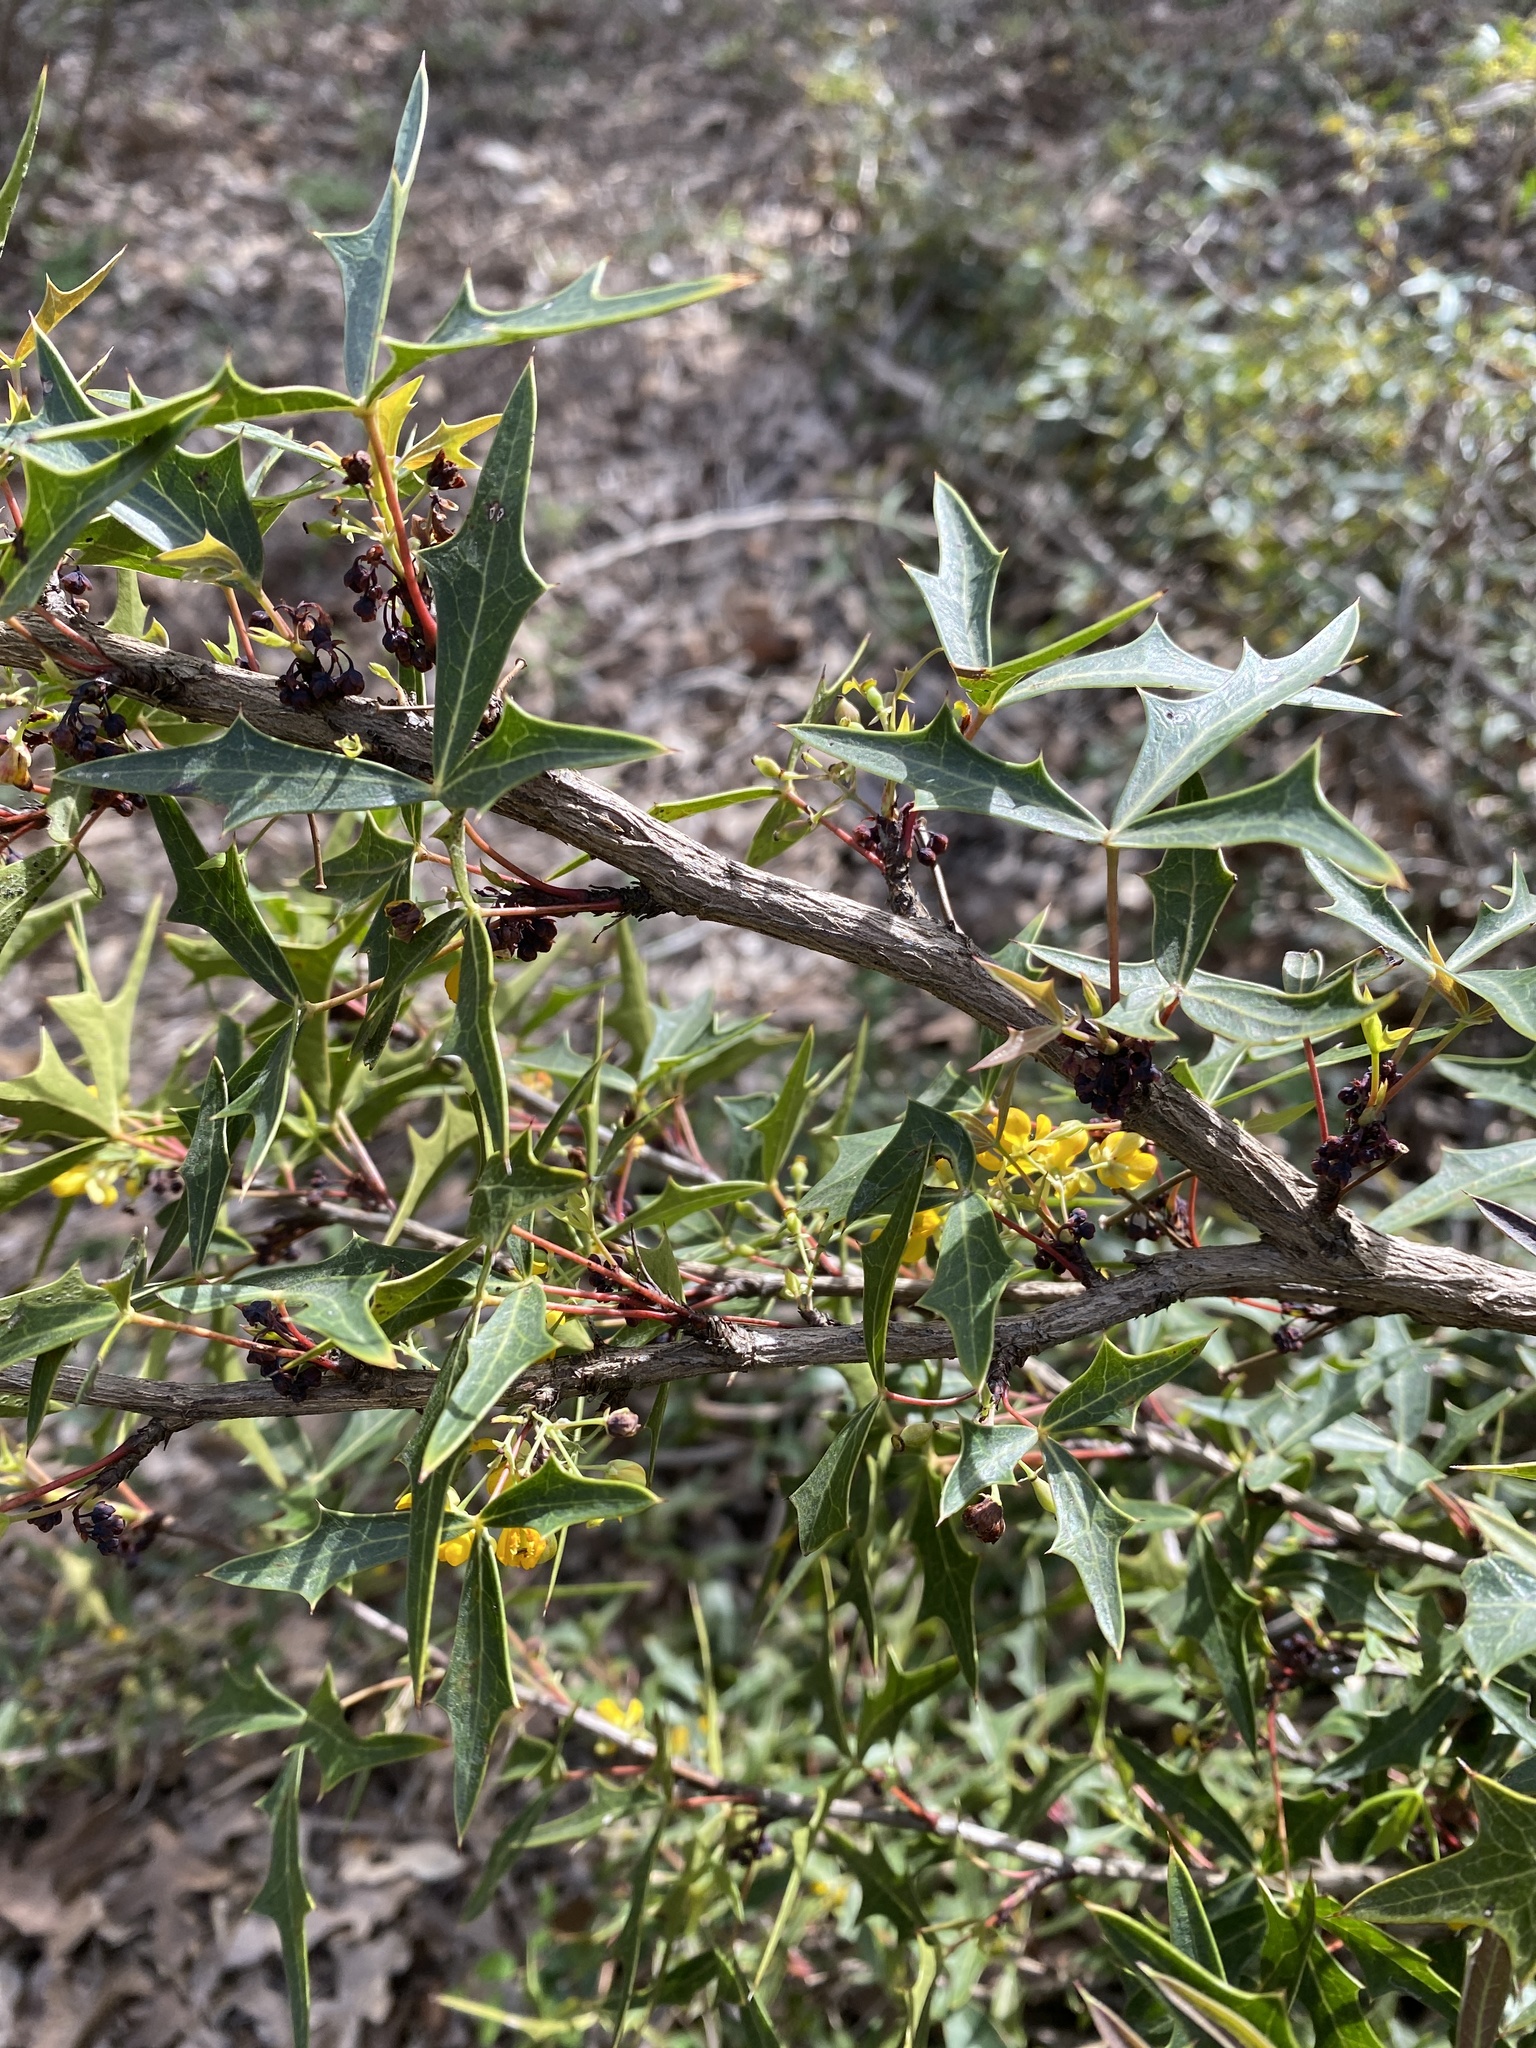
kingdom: Plantae
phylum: Tracheophyta
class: Magnoliopsida
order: Ranunculales
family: Berberidaceae
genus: Alloberberis
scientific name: Alloberberis trifoliolata
